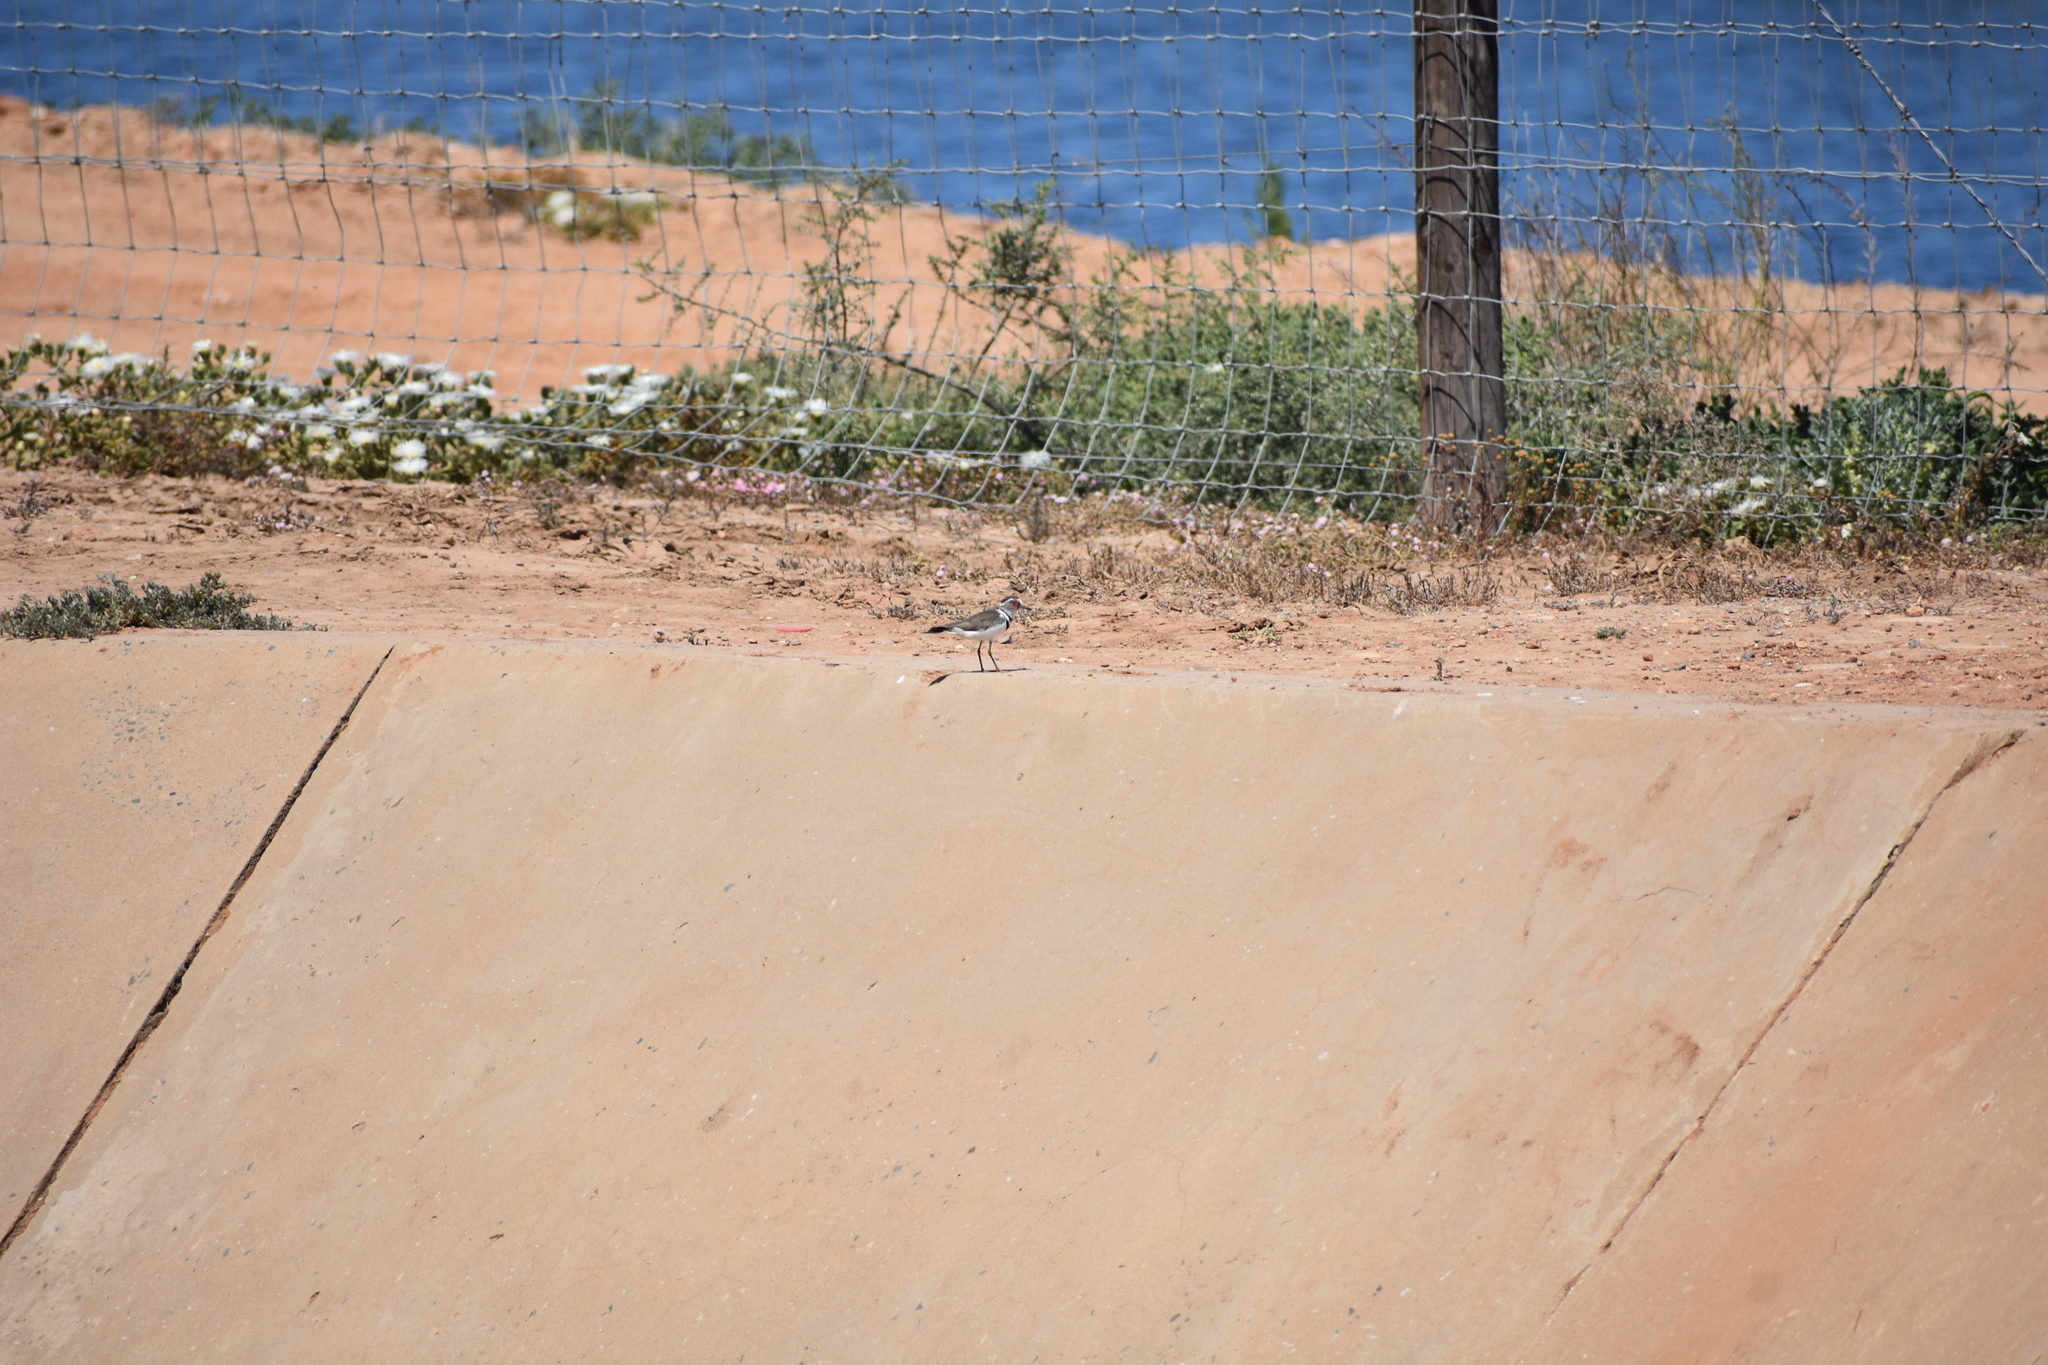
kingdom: Animalia
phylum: Chordata
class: Aves
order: Charadriiformes
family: Charadriidae
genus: Charadrius
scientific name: Charadrius tricollaris
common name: Three-banded plover
